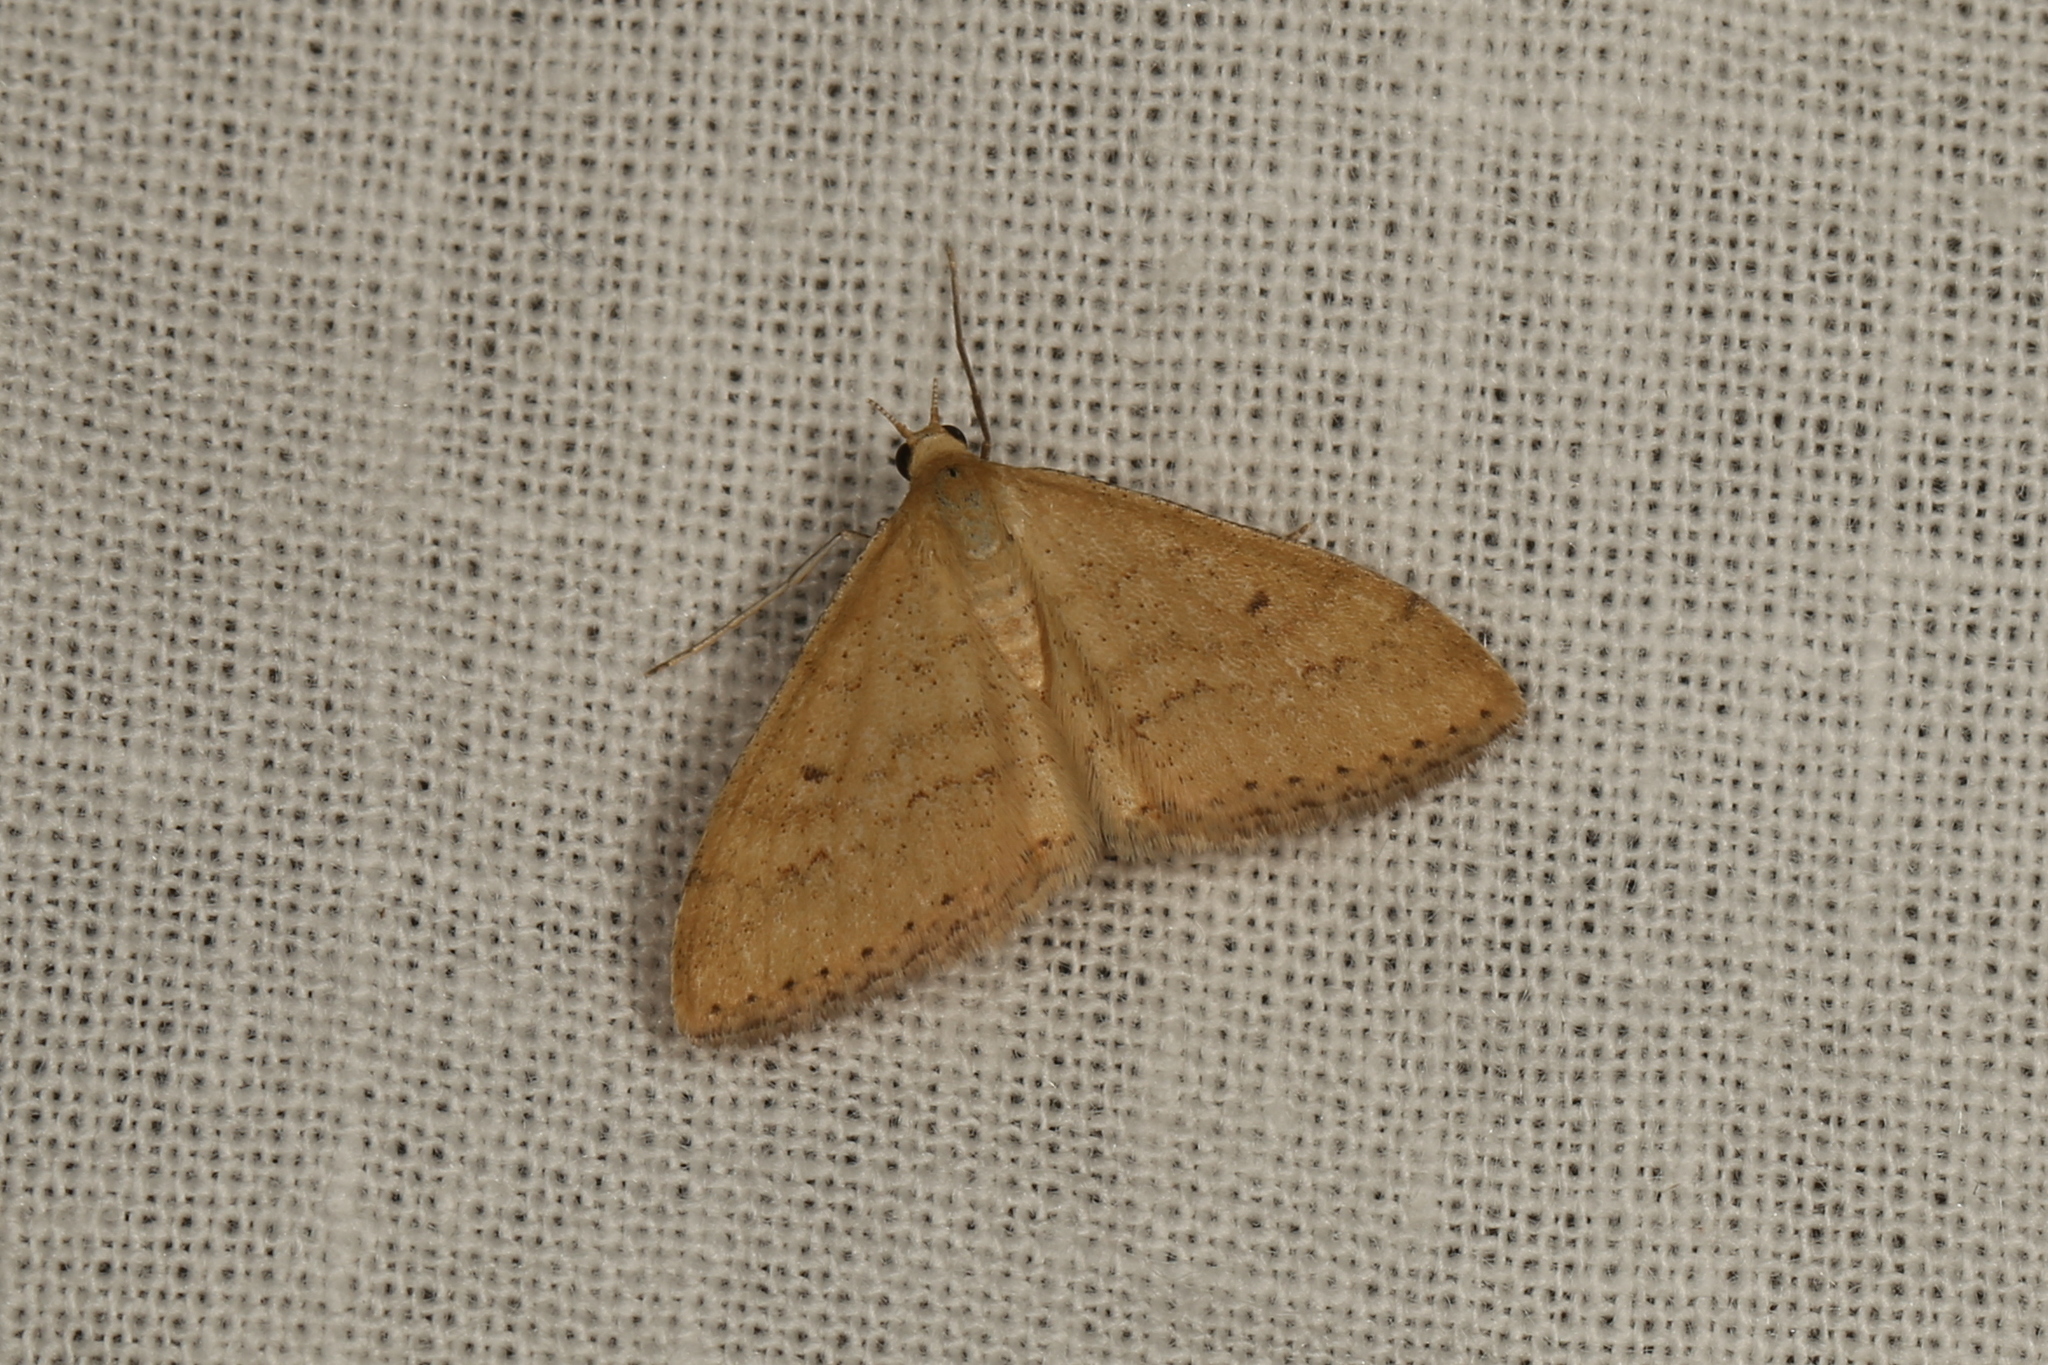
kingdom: Animalia
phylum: Arthropoda
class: Insecta
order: Lepidoptera
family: Geometridae
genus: Scopula
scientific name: Scopula rubraria
